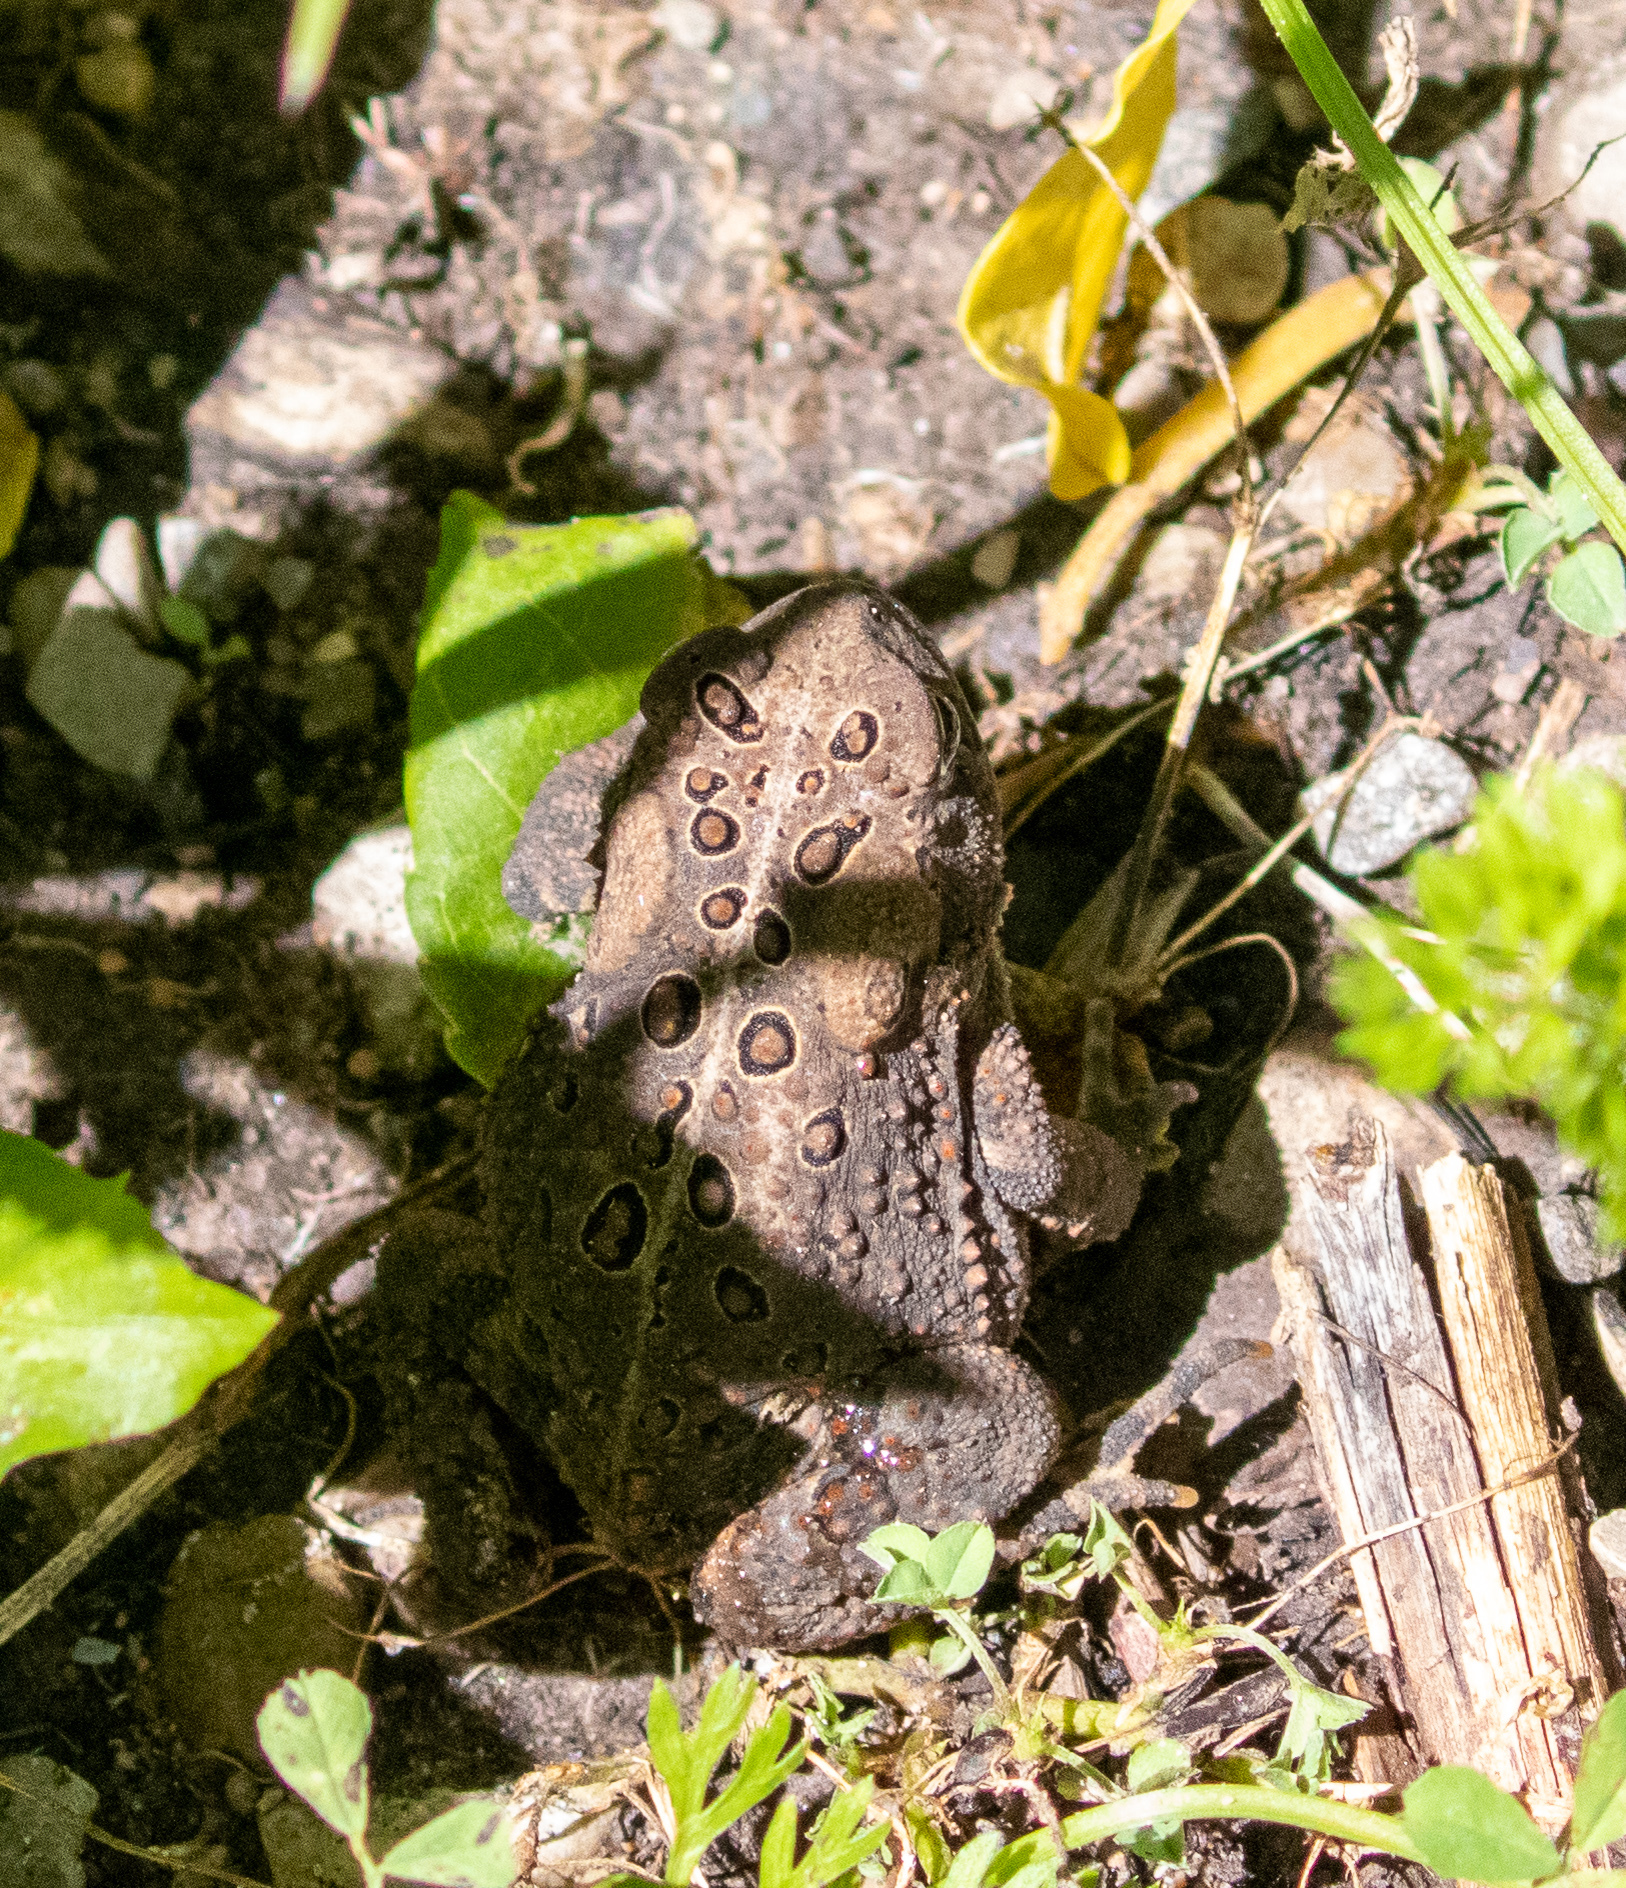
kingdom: Animalia
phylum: Chordata
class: Amphibia
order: Anura
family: Bufonidae
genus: Anaxyrus
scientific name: Anaxyrus americanus
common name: American toad
